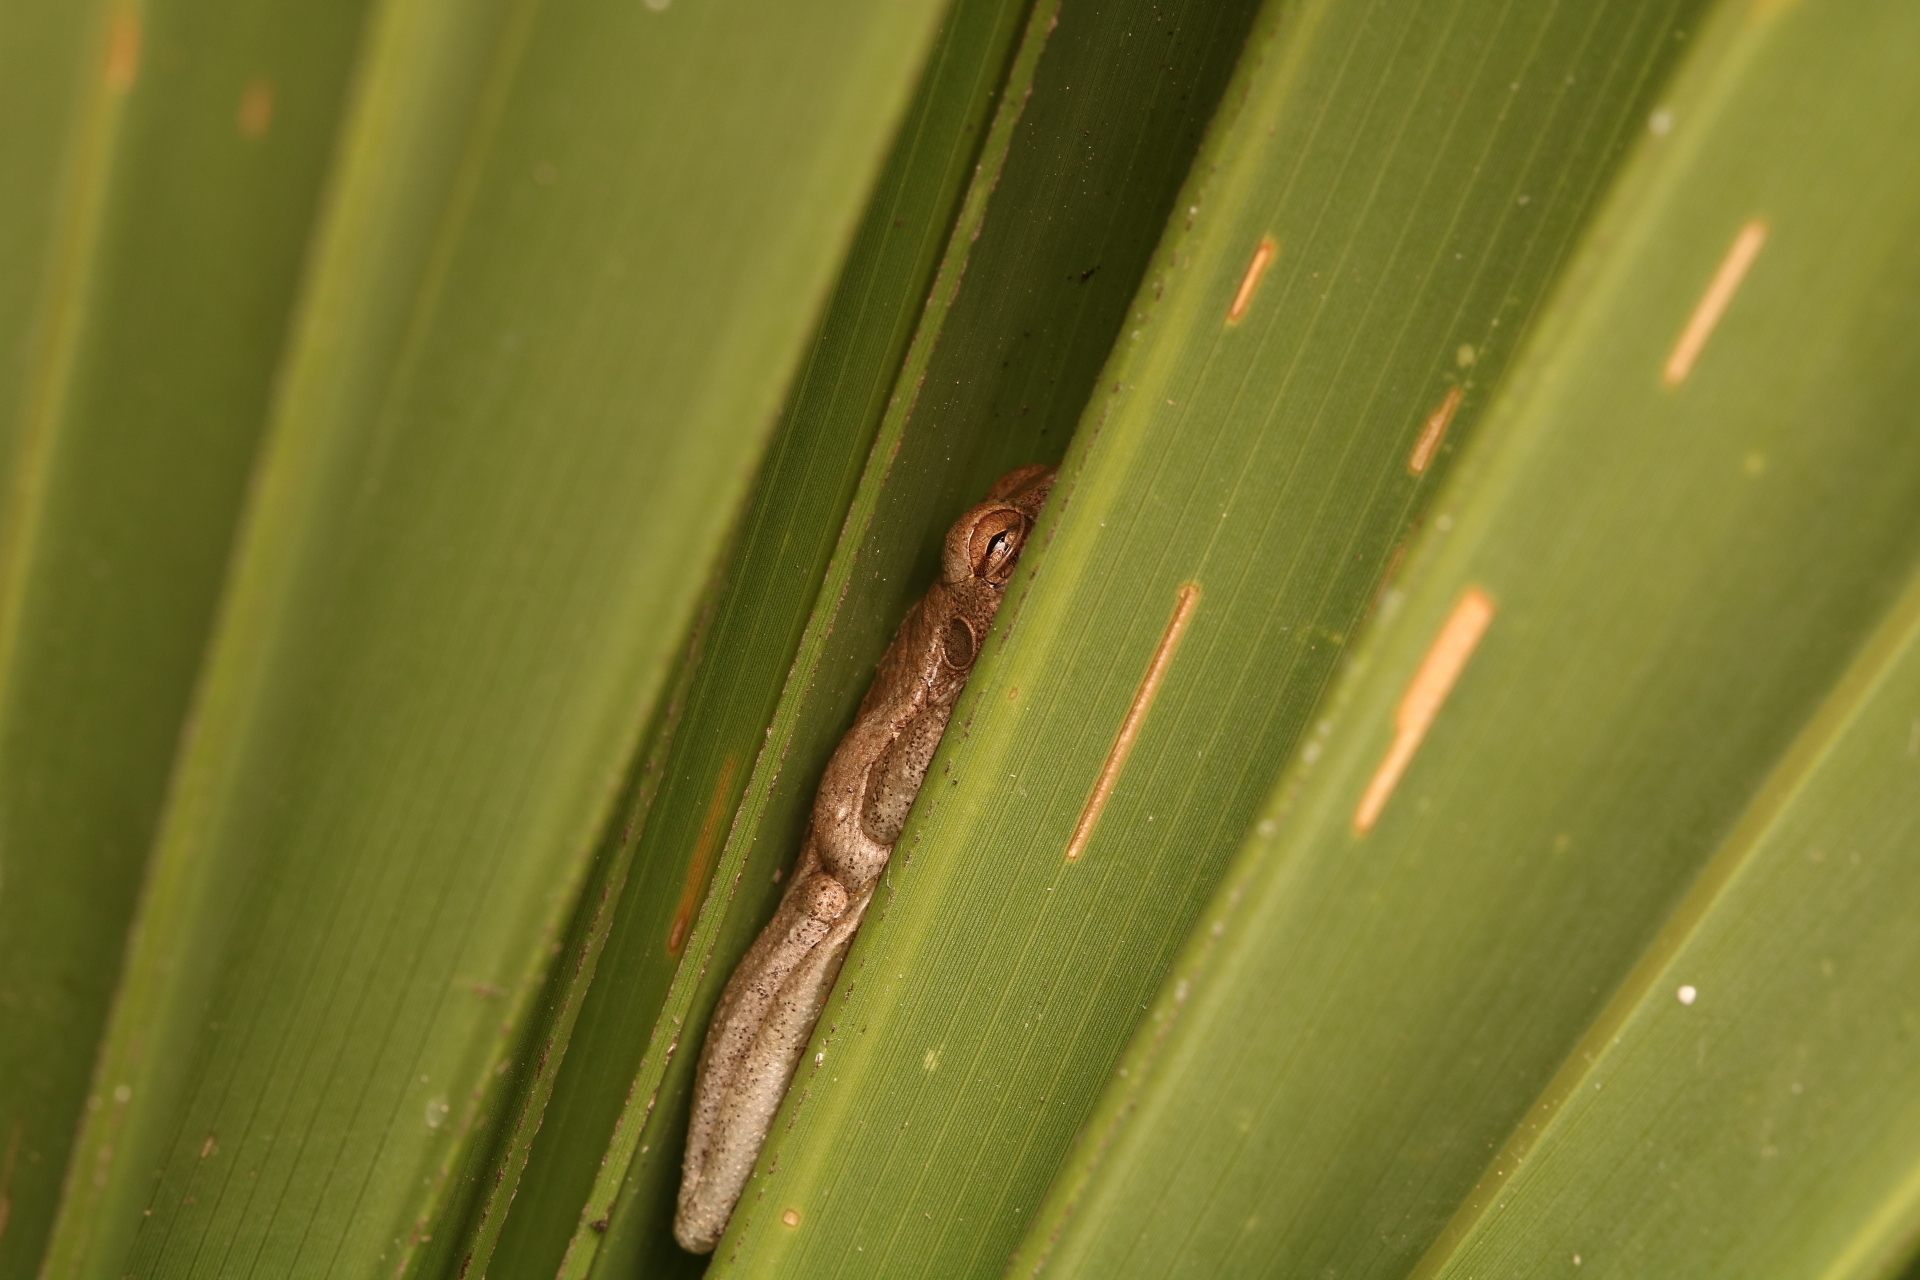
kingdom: Animalia
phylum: Chordata
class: Amphibia
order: Anura
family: Hylidae
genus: Osteopilus
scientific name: Osteopilus septentrionalis
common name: Cuban treefrog
